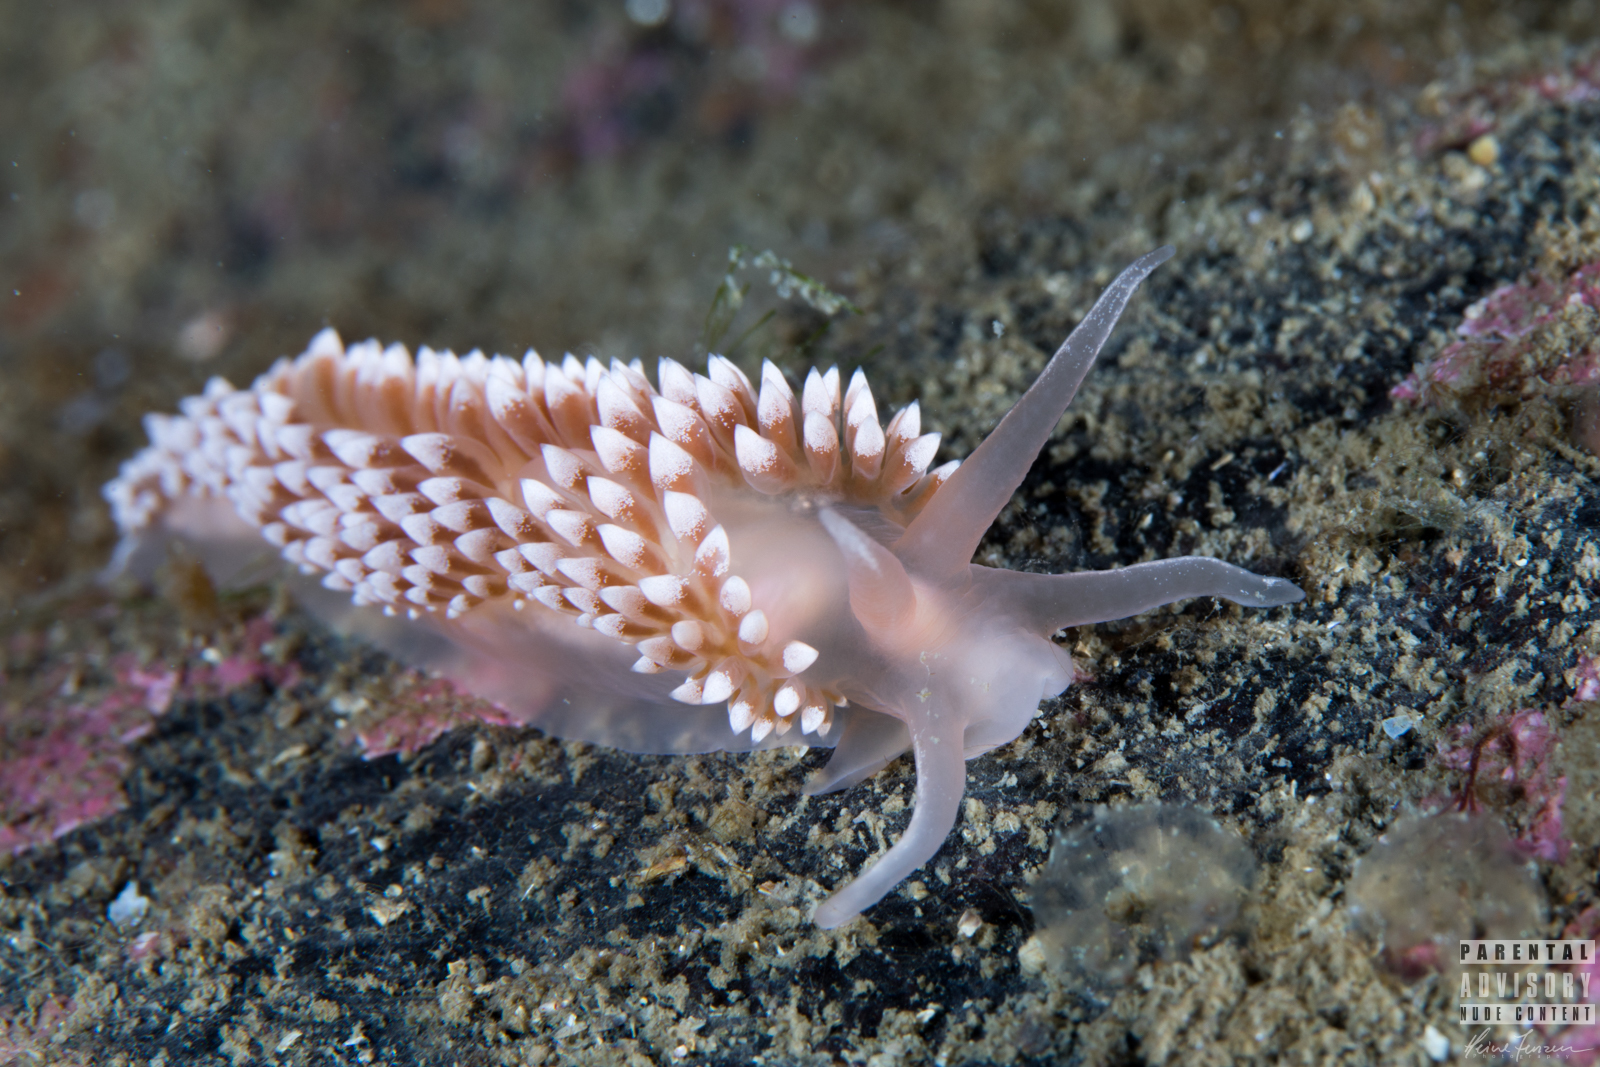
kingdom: Animalia
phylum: Mollusca
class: Gastropoda
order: Nudibranchia
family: Coryphellidae
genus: Coryphella
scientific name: Coryphella verrucosa
